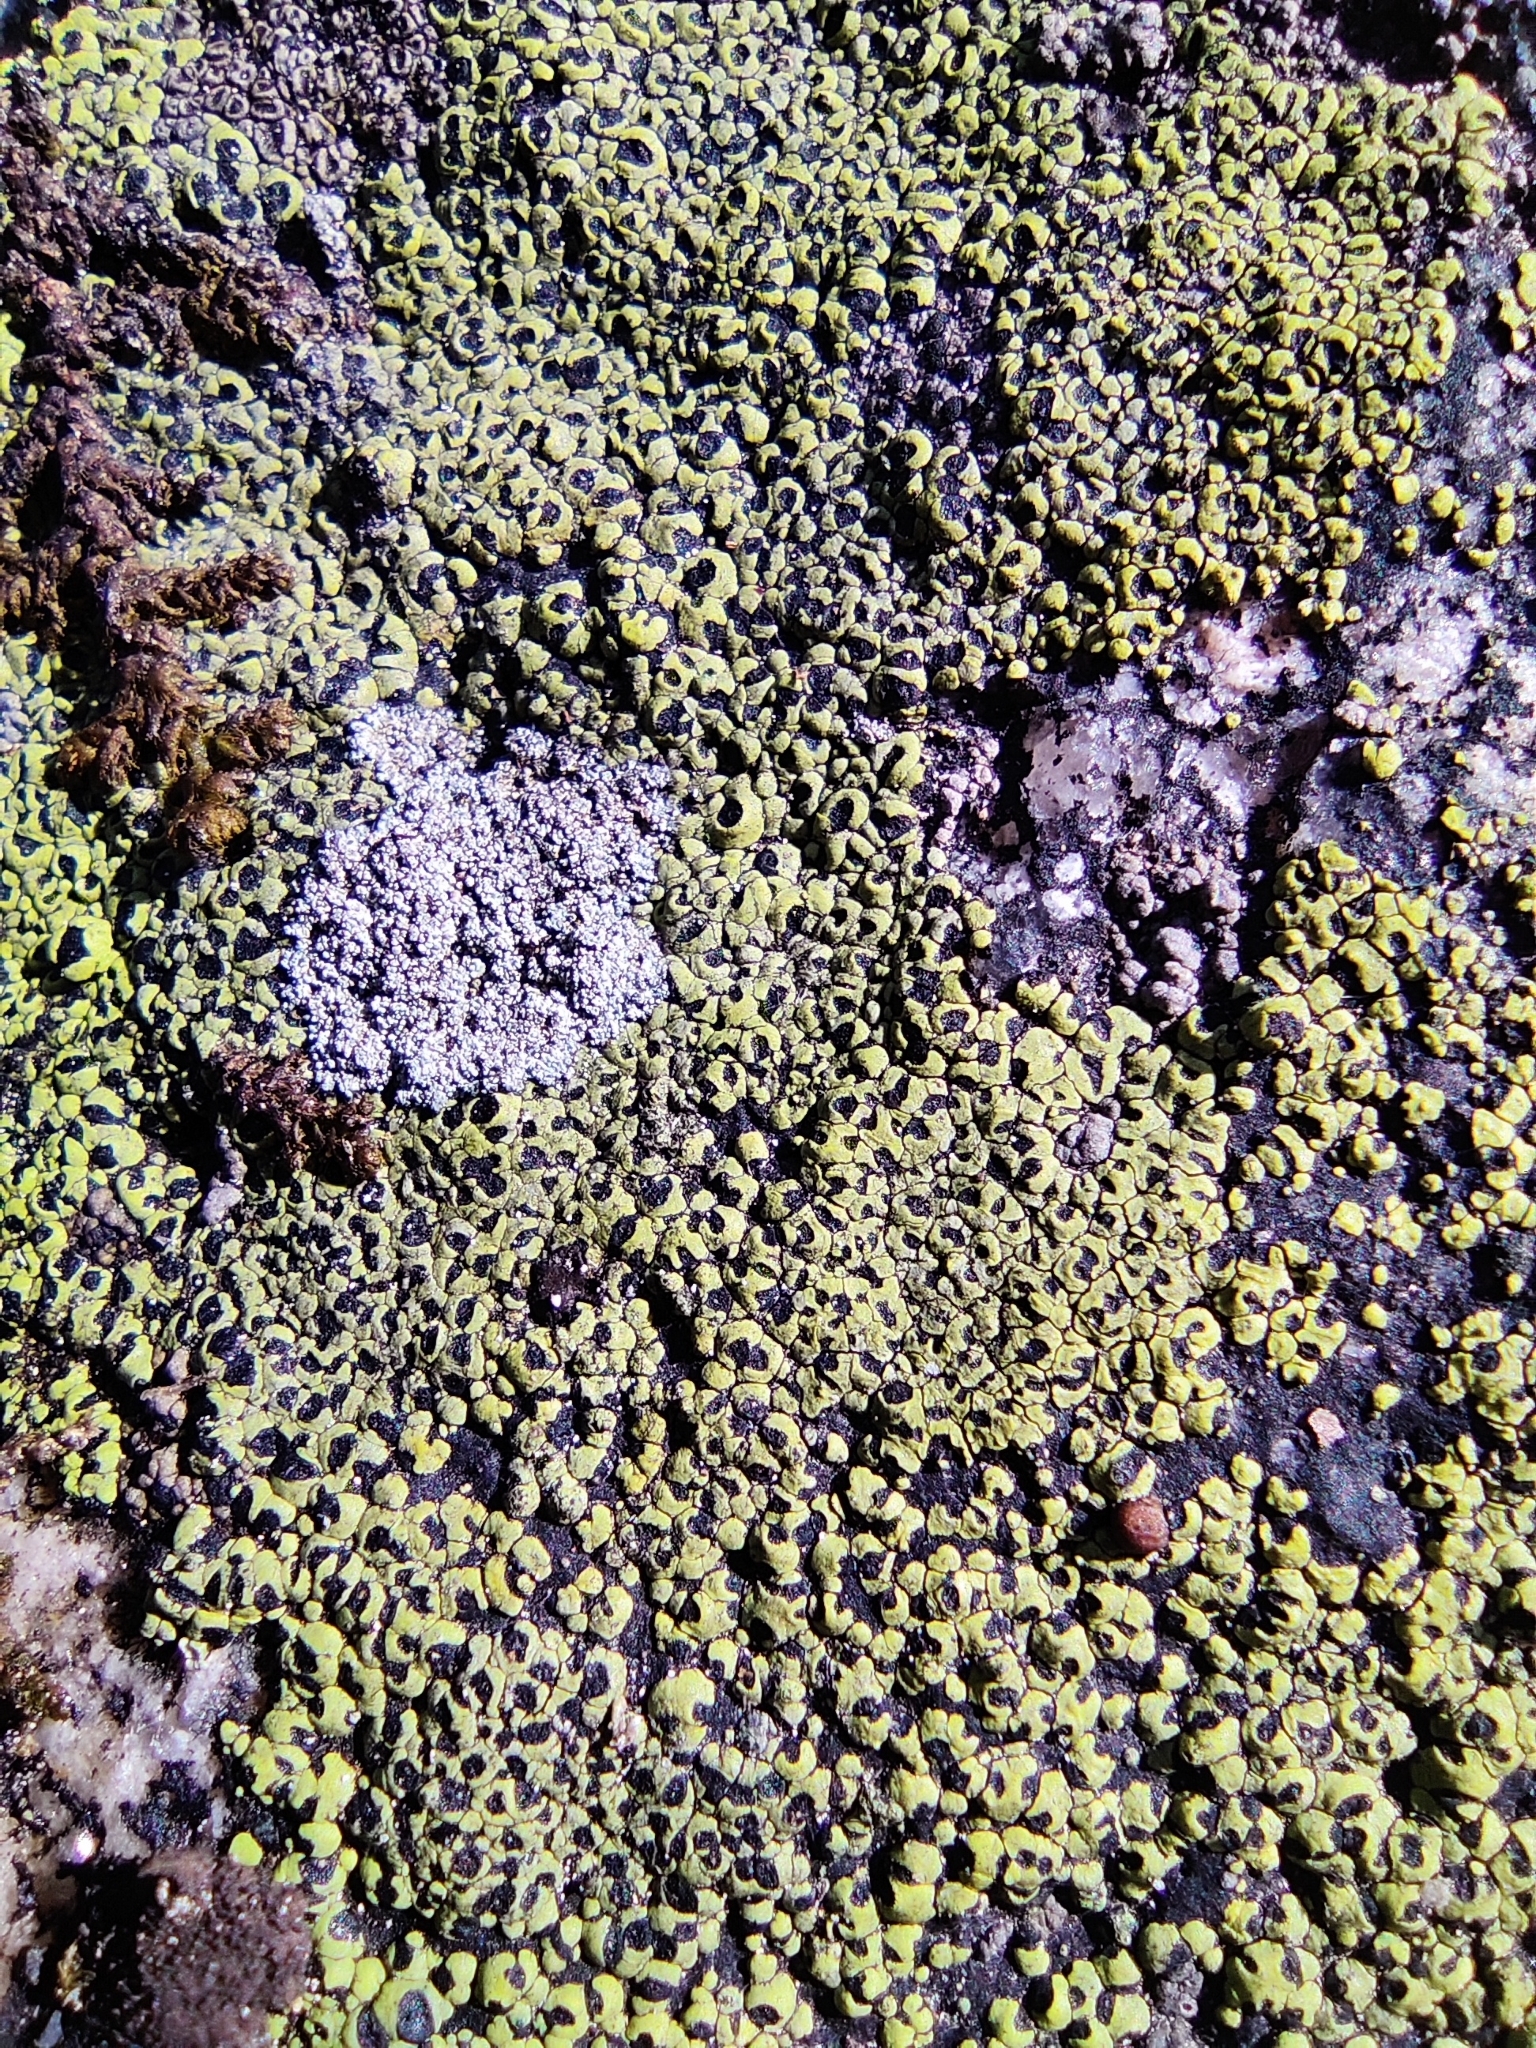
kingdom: Fungi
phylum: Ascomycota
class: Lecanoromycetes
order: Rhizocarpales
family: Rhizocarpaceae
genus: Rhizocarpon
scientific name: Rhizocarpon lecanorinum
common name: Crescent map lichen
